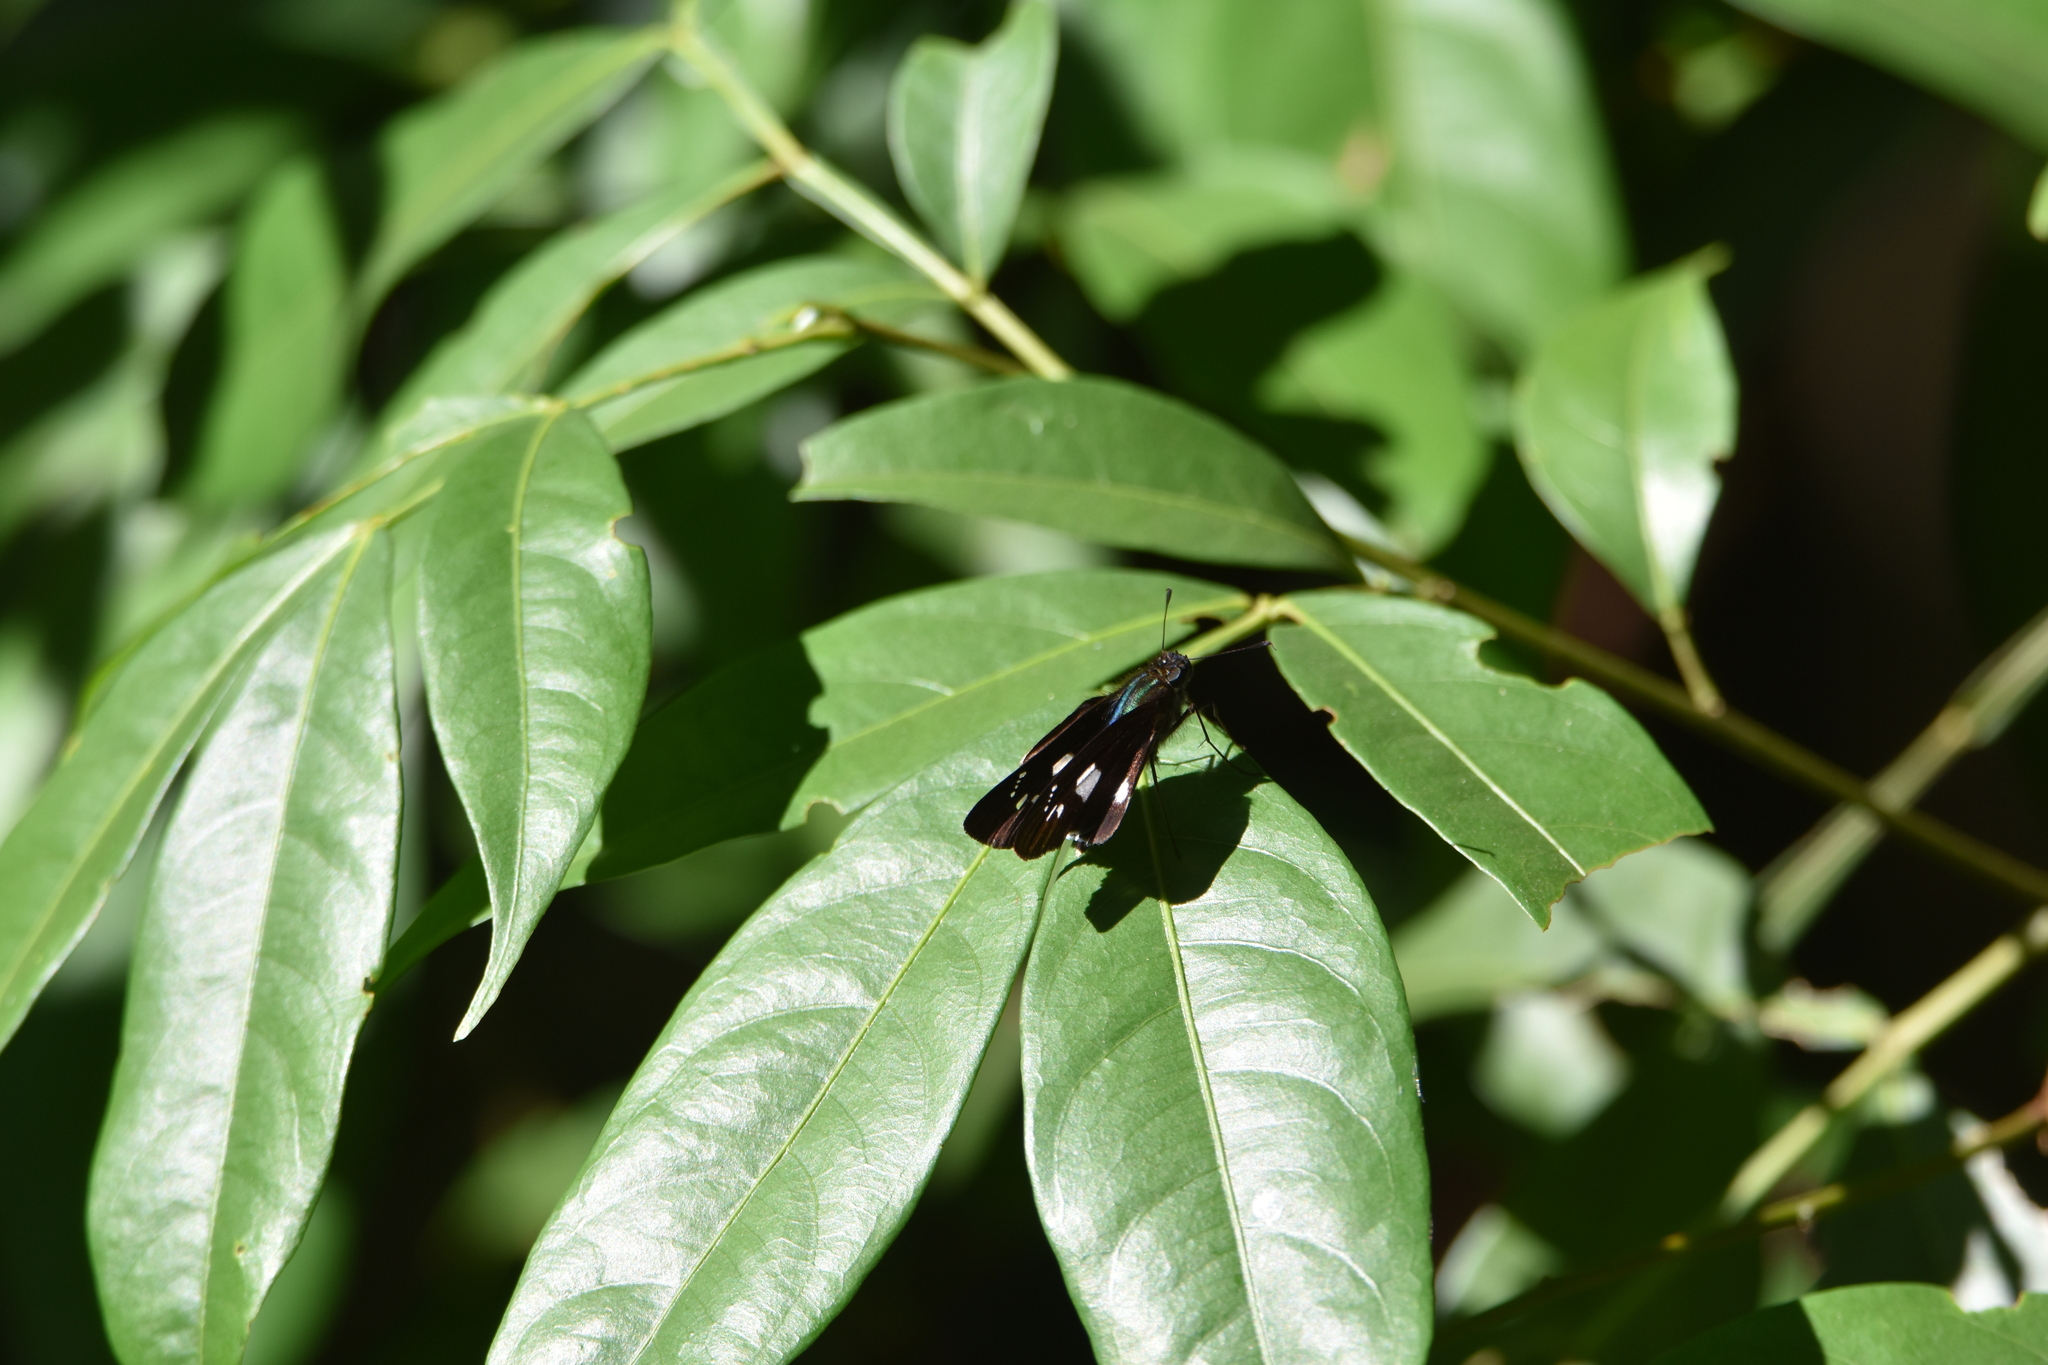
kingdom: Animalia
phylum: Arthropoda
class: Insecta
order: Lepidoptera
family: Hesperiidae
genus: Zenis
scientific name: Zenis jebus
